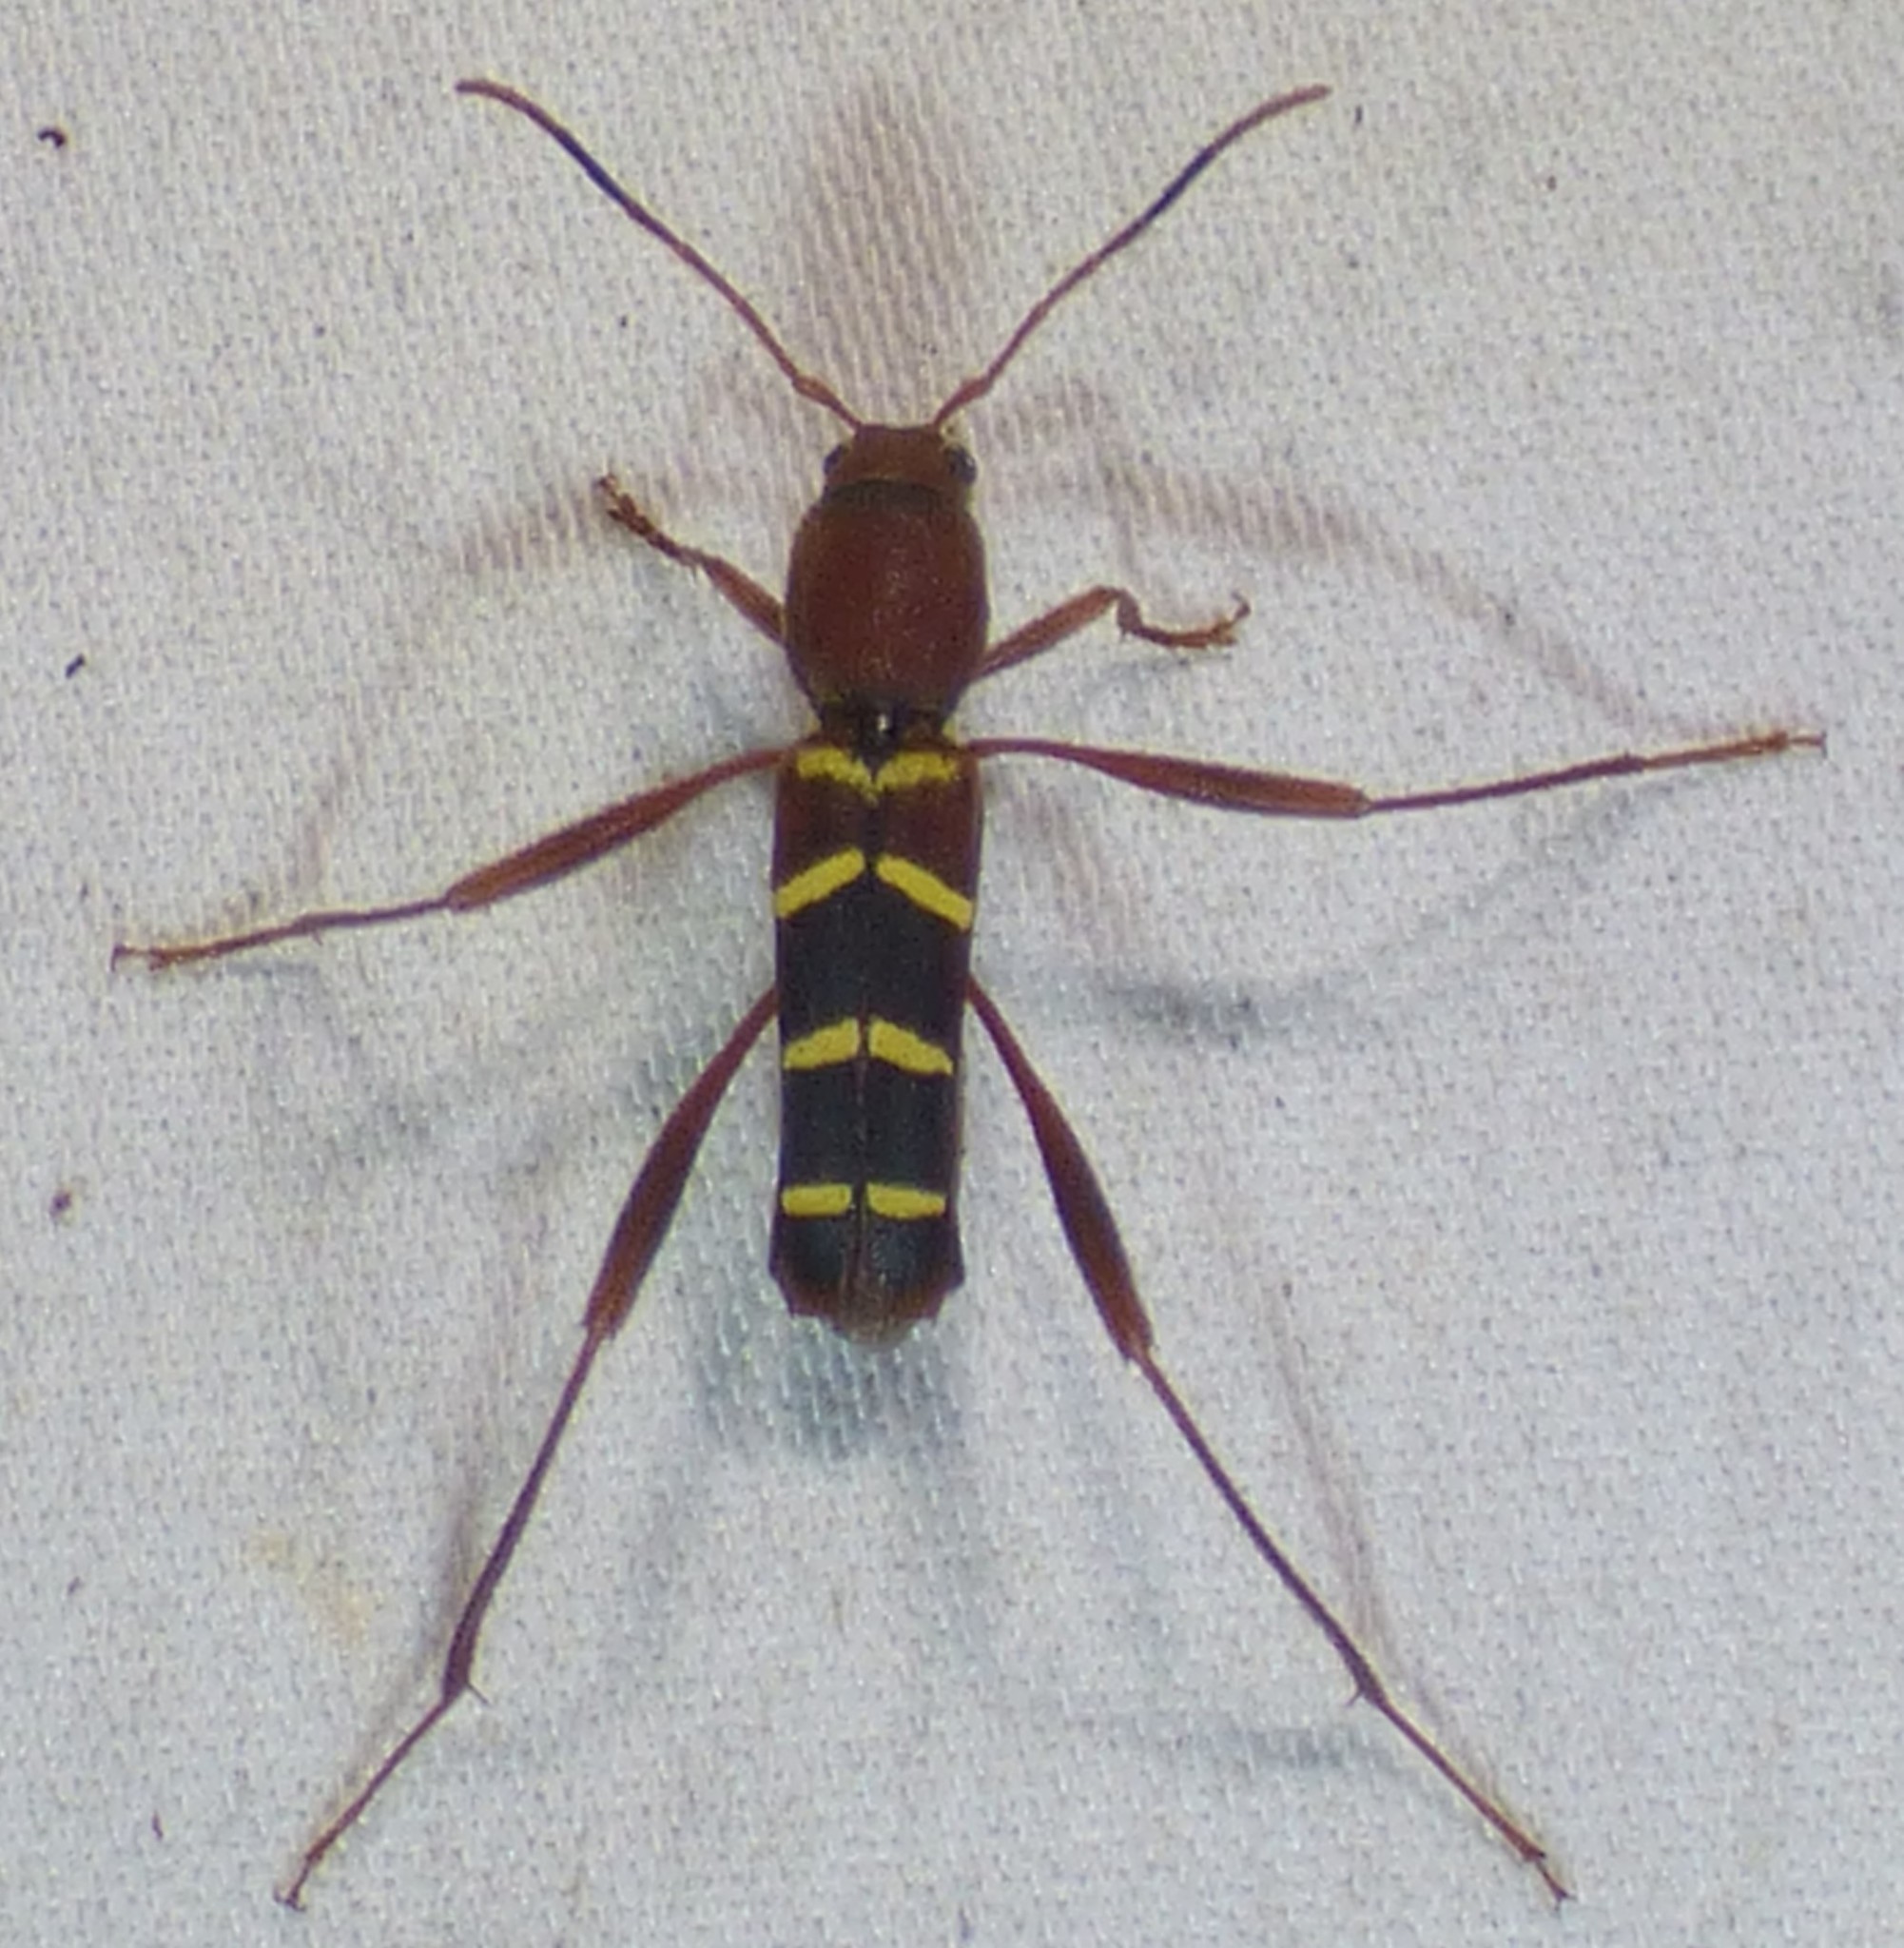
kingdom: Animalia
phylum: Arthropoda
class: Insecta
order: Coleoptera
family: Cerambycidae
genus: Neoclytus
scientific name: Neoclytus acuminatus
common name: Read-headed ash borer
